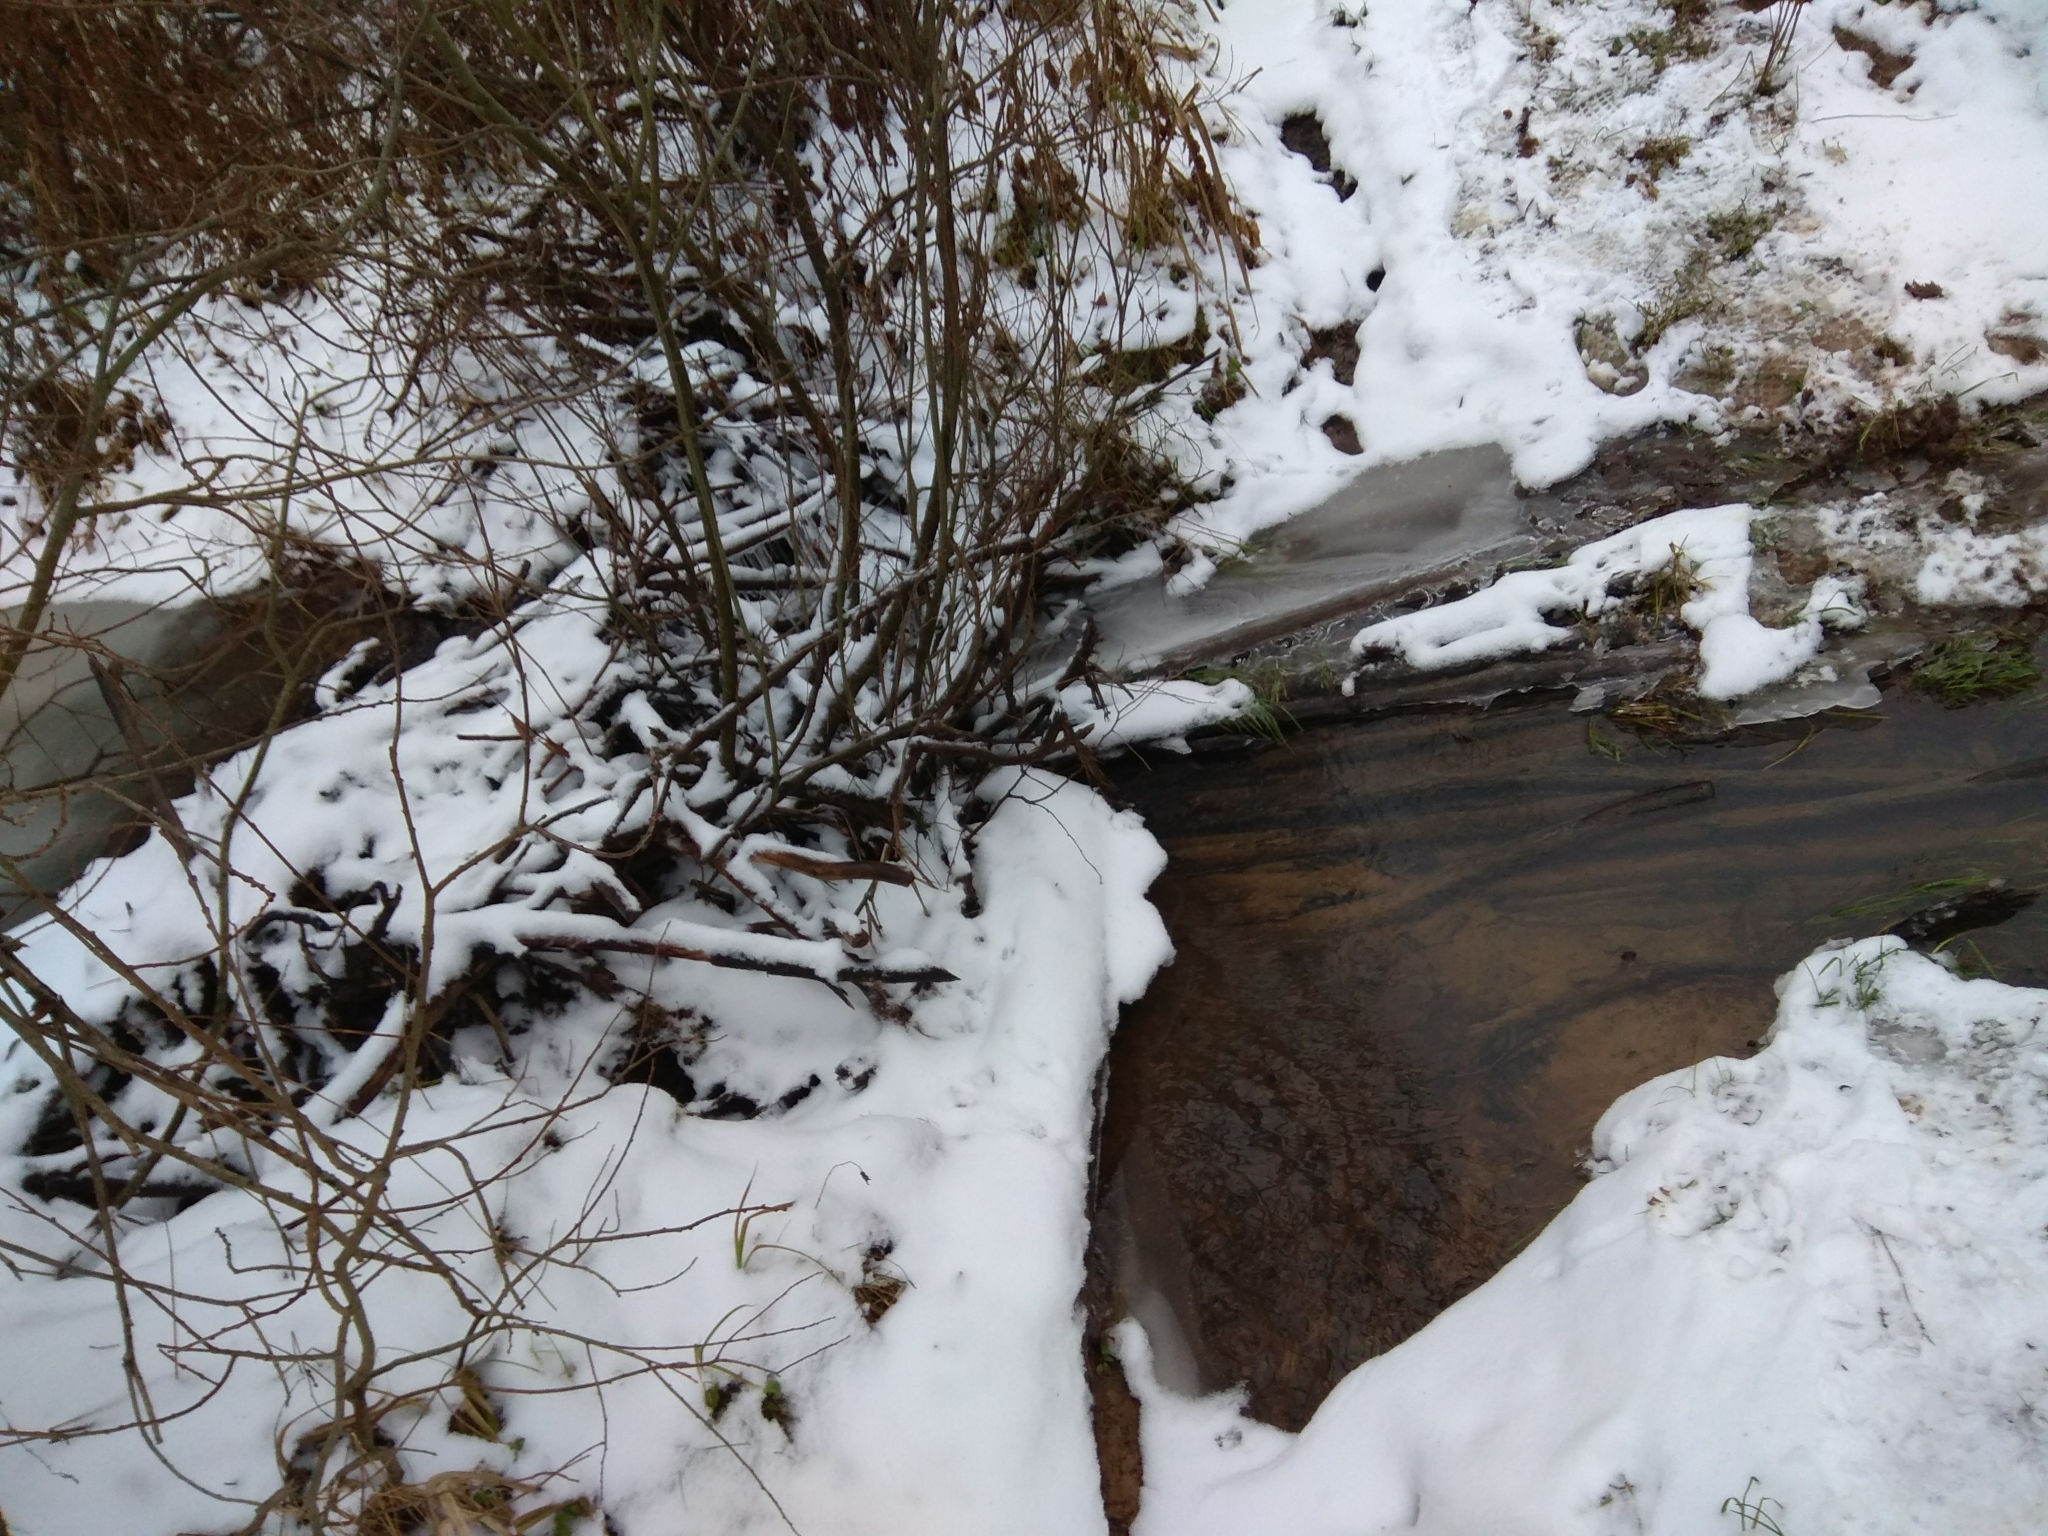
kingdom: Animalia
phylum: Chordata
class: Mammalia
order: Rodentia
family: Castoridae
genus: Castor
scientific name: Castor fiber
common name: Eurasian beaver
